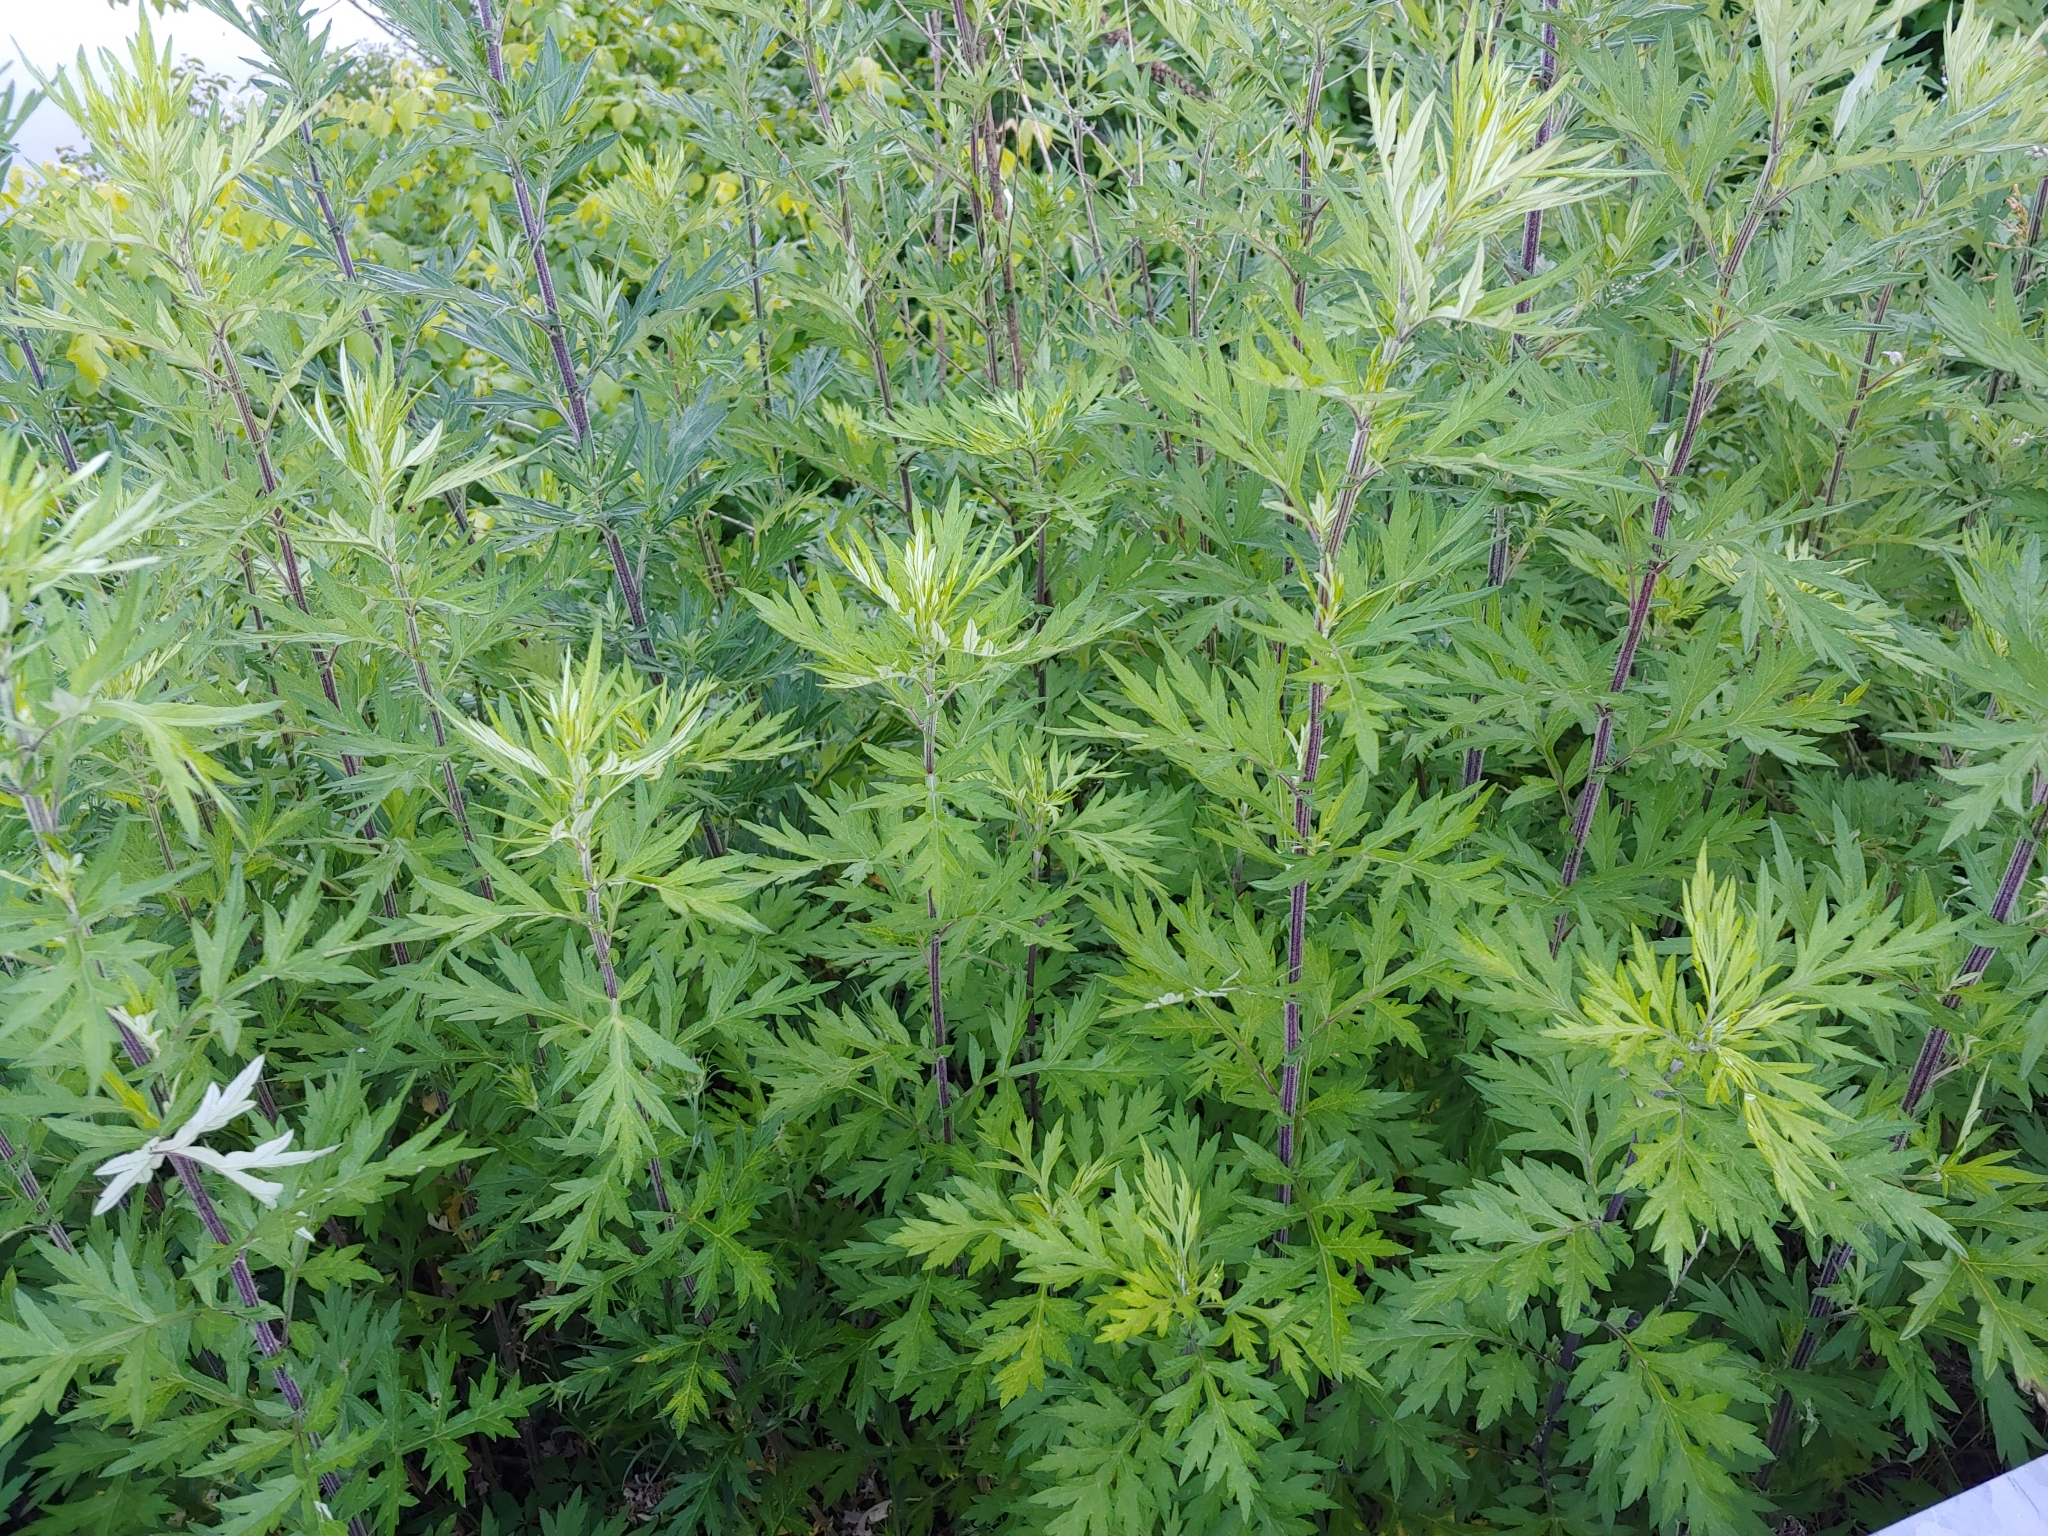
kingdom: Plantae
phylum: Tracheophyta
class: Magnoliopsida
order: Asterales
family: Asteraceae
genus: Artemisia
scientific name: Artemisia vulgaris
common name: Mugwort
